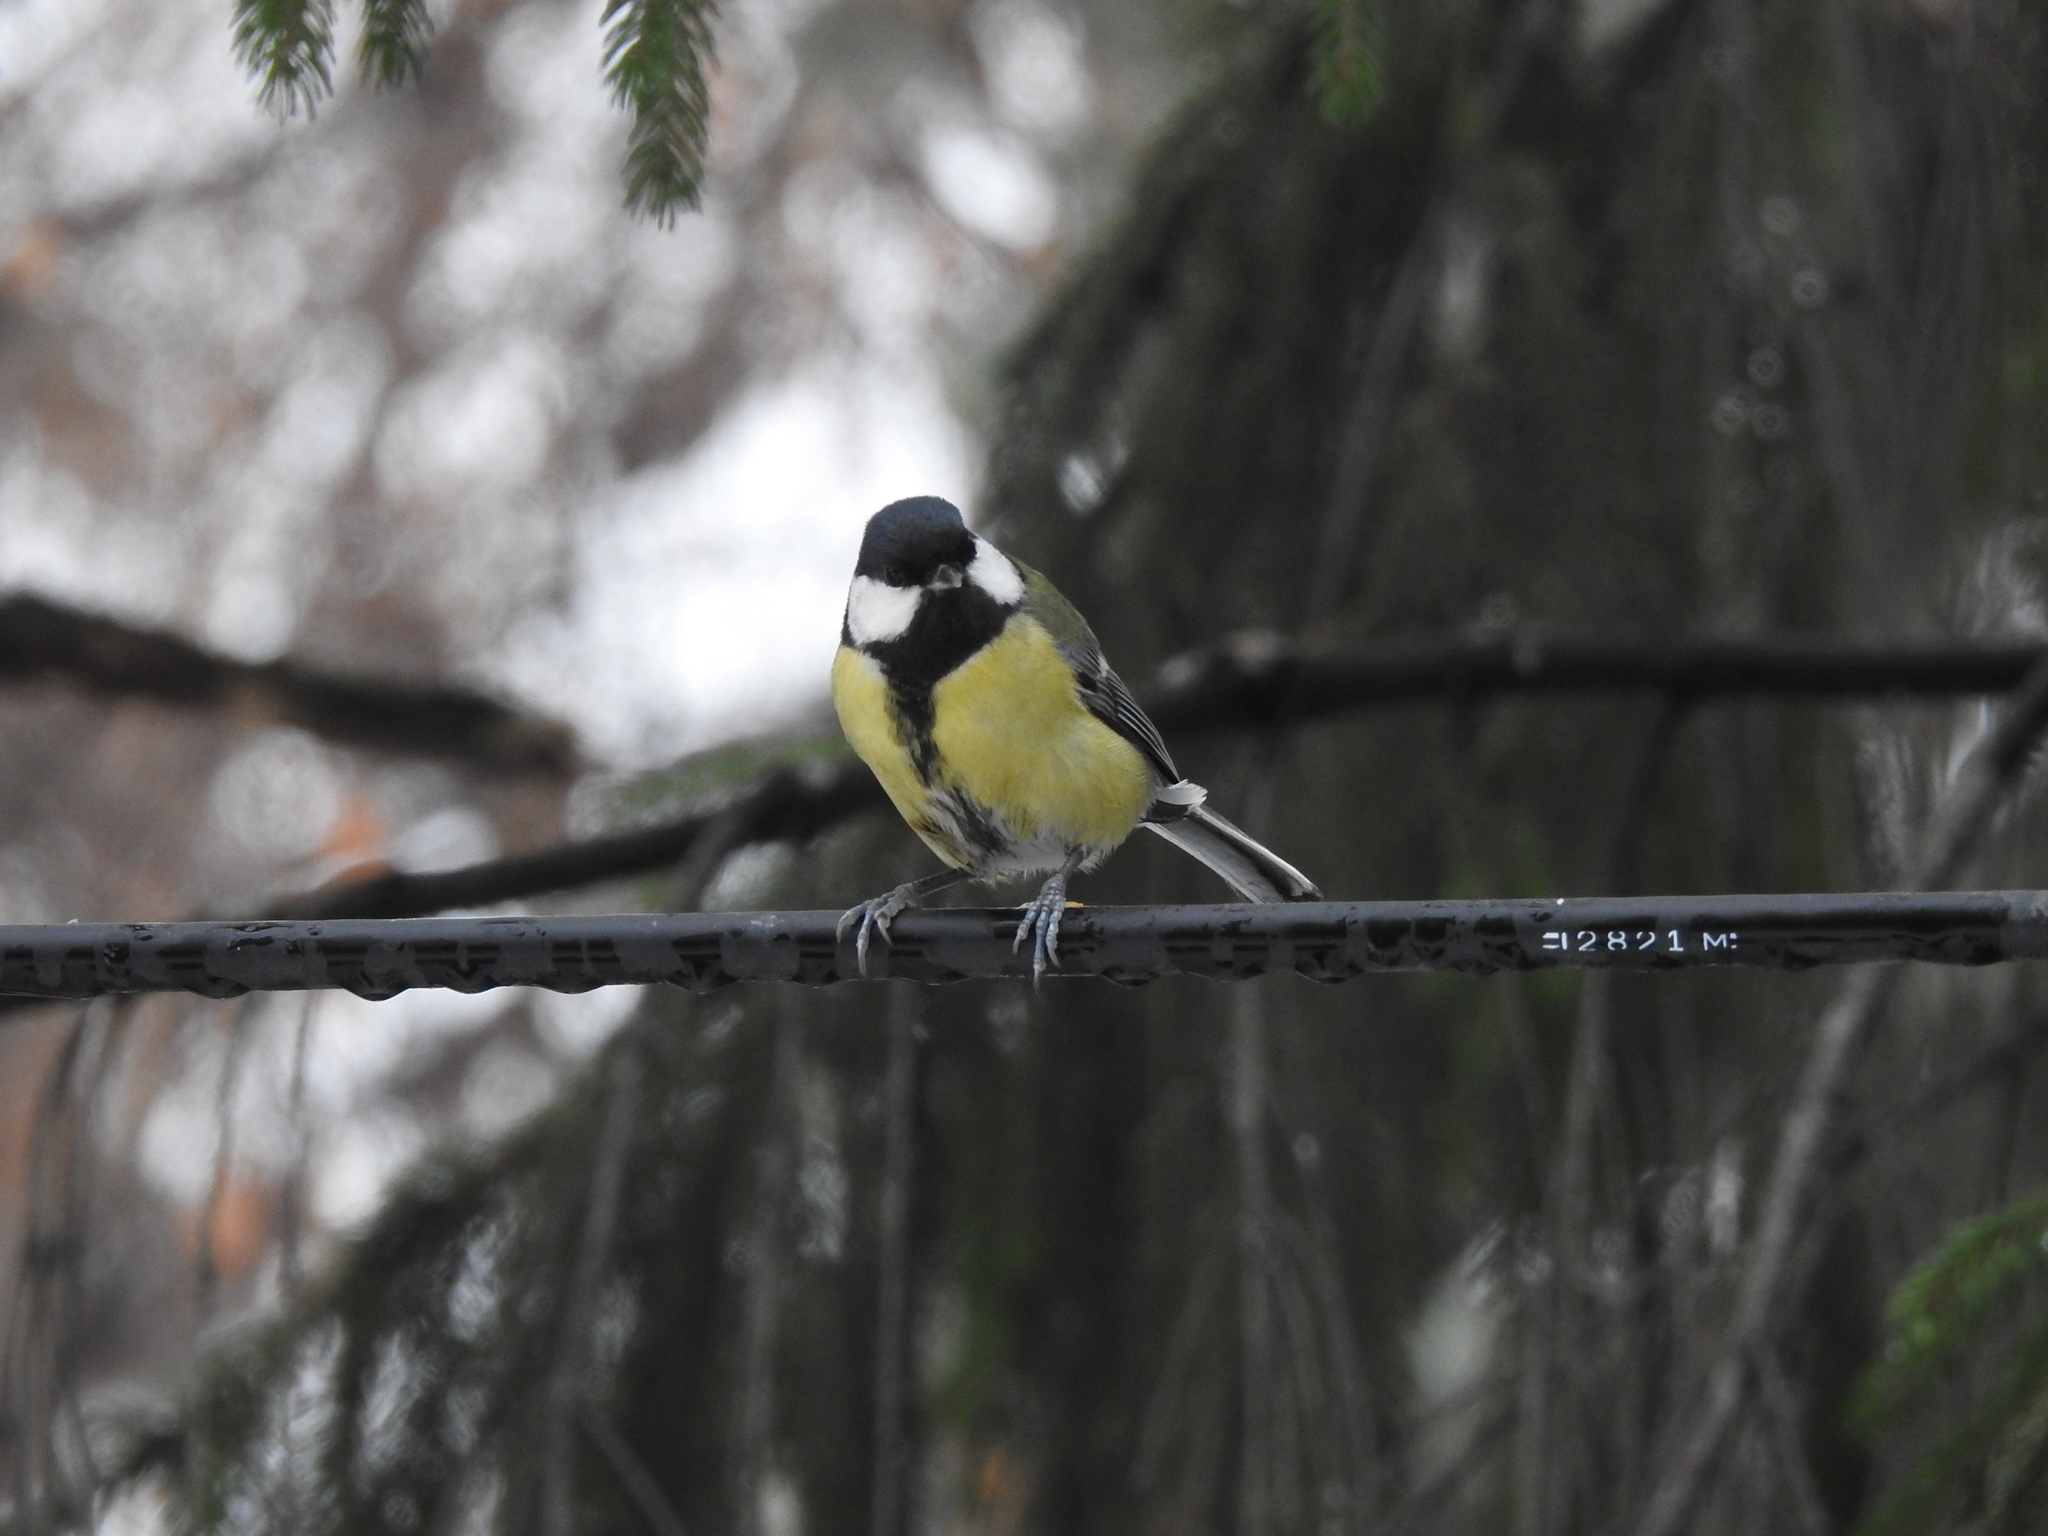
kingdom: Animalia
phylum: Chordata
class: Aves
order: Passeriformes
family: Paridae
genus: Parus
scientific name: Parus major
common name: Great tit
